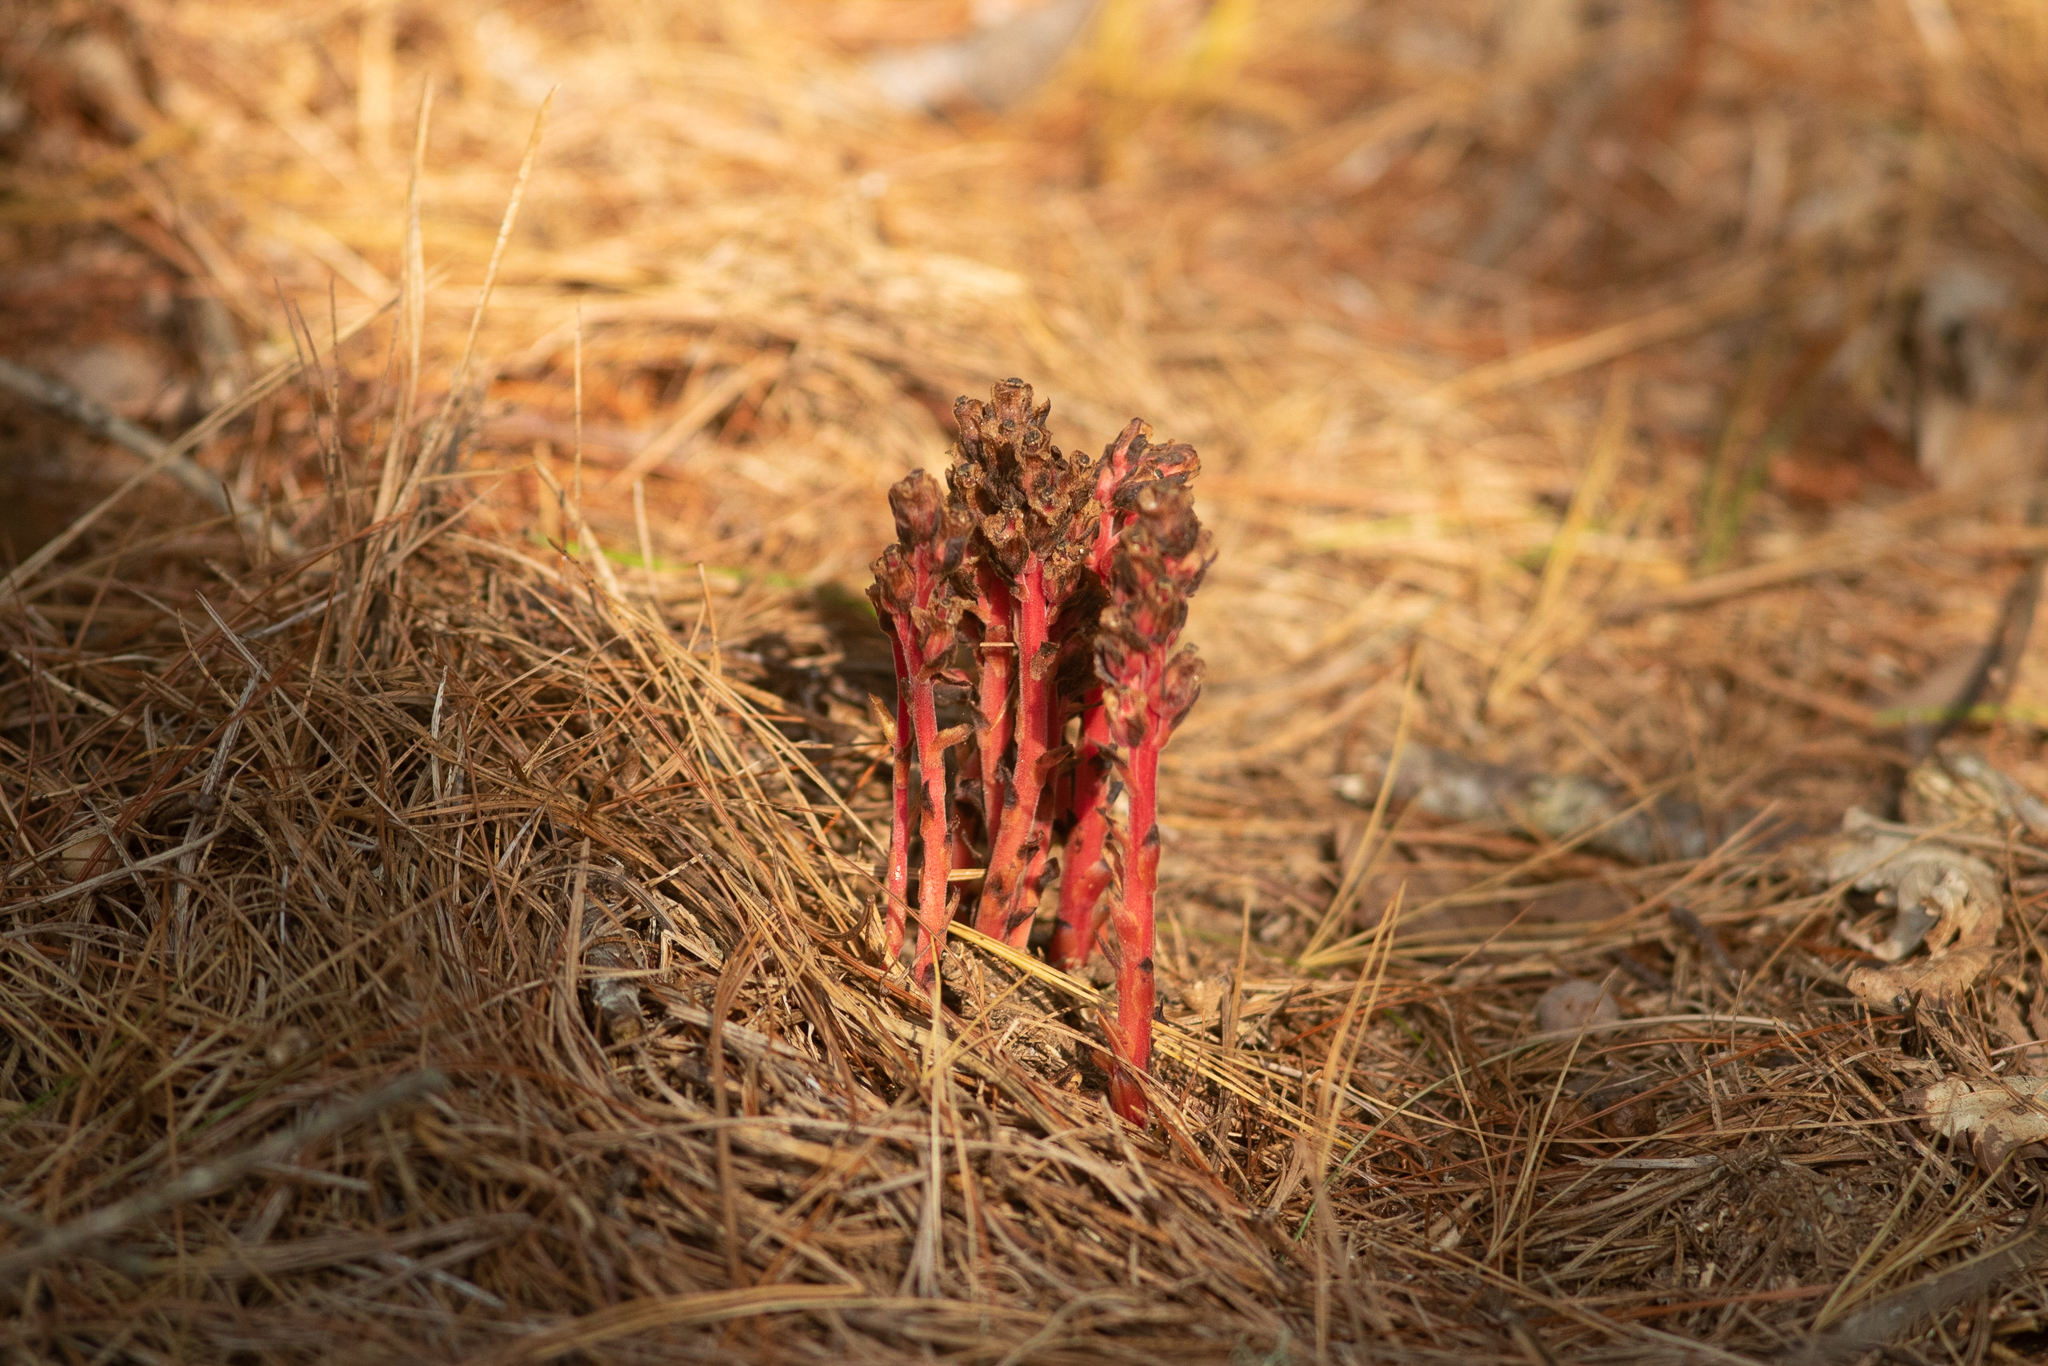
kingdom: Plantae
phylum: Tracheophyta
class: Magnoliopsida
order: Ericales
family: Ericaceae
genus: Hypopitys
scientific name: Hypopitys monotropa
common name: Yellow bird's-nest
